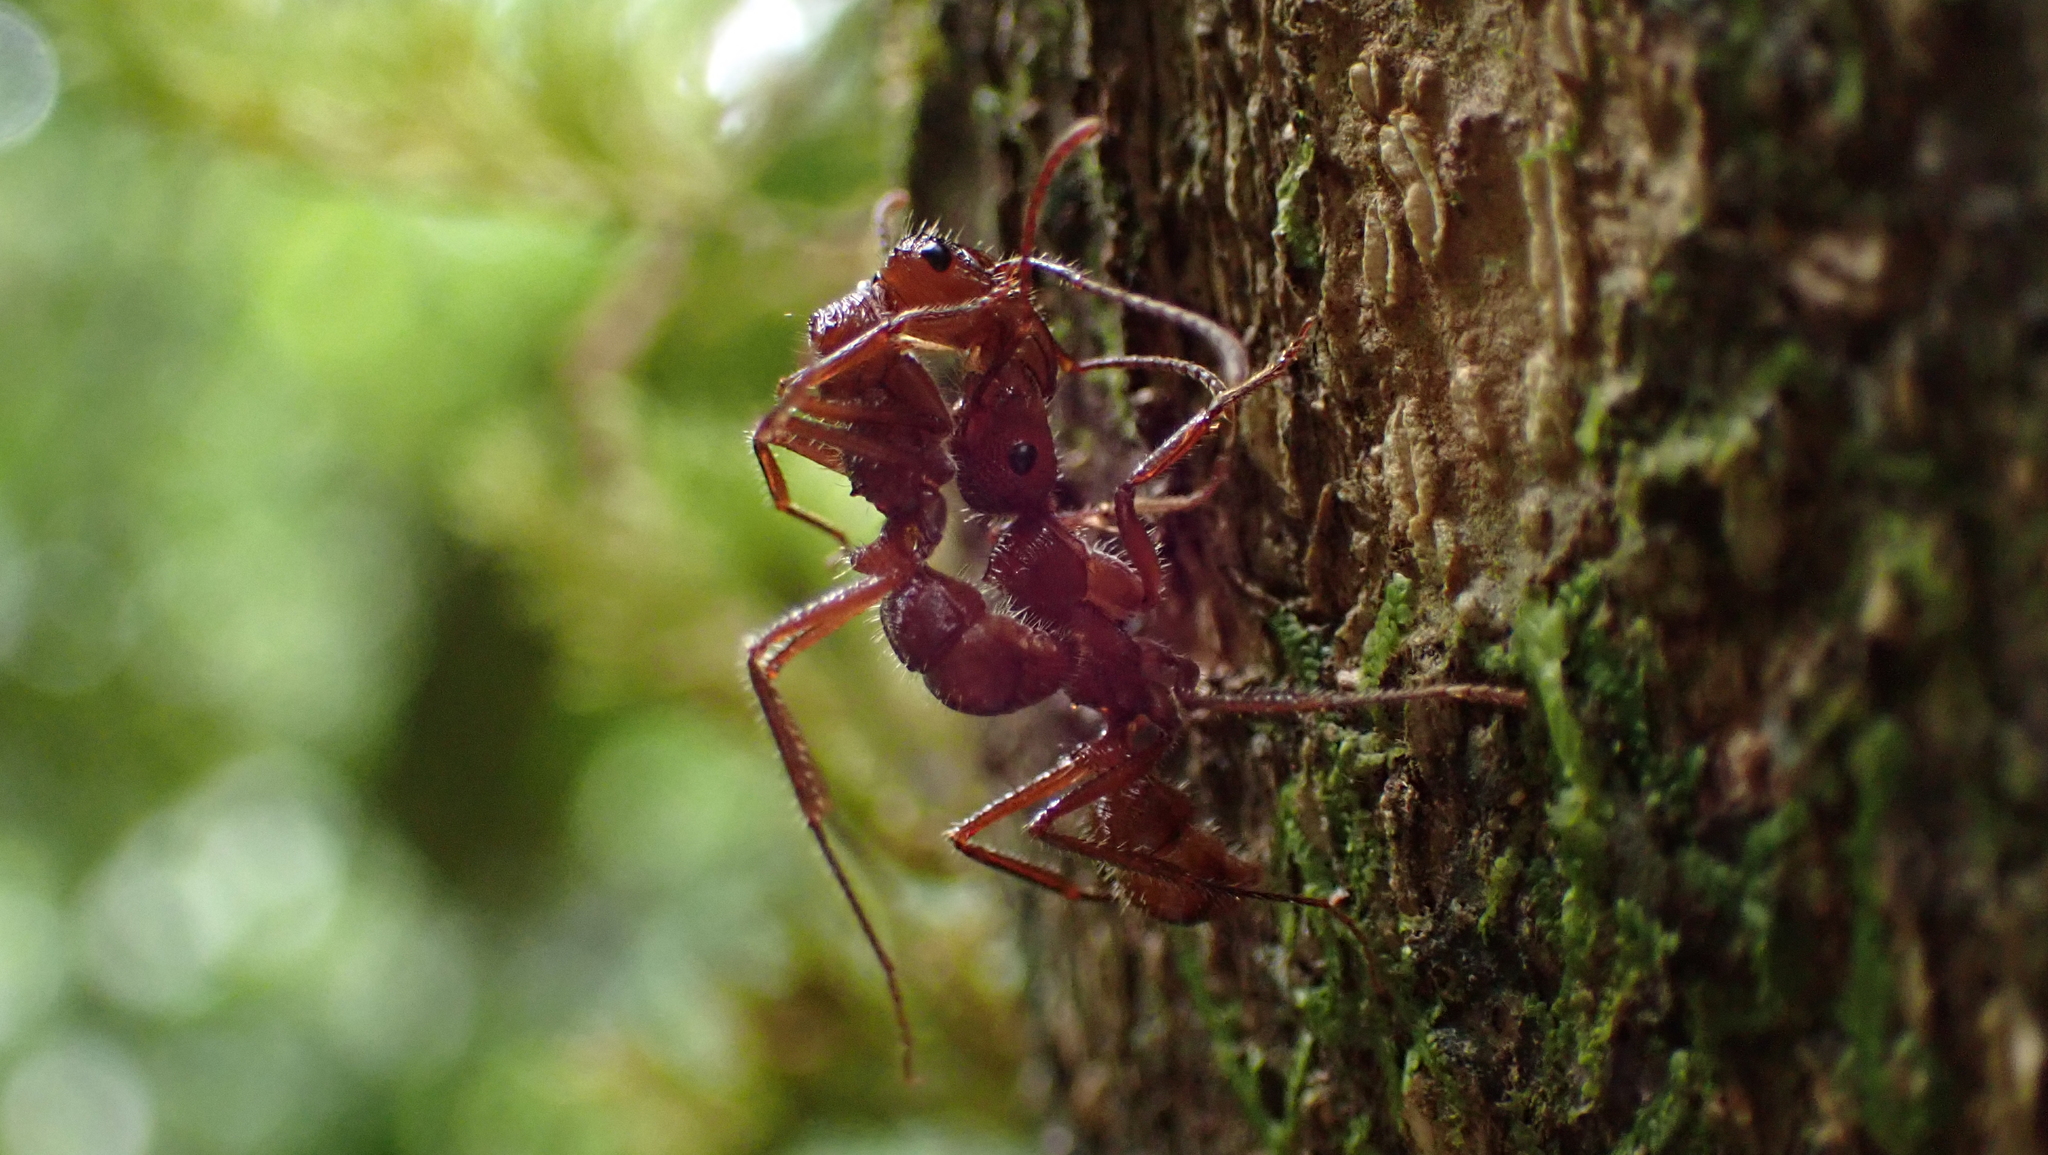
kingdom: Animalia
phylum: Arthropoda
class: Insecta
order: Hymenoptera
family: Formicidae
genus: Ectatomma
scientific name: Ectatomma tuberculatum
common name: Ant
